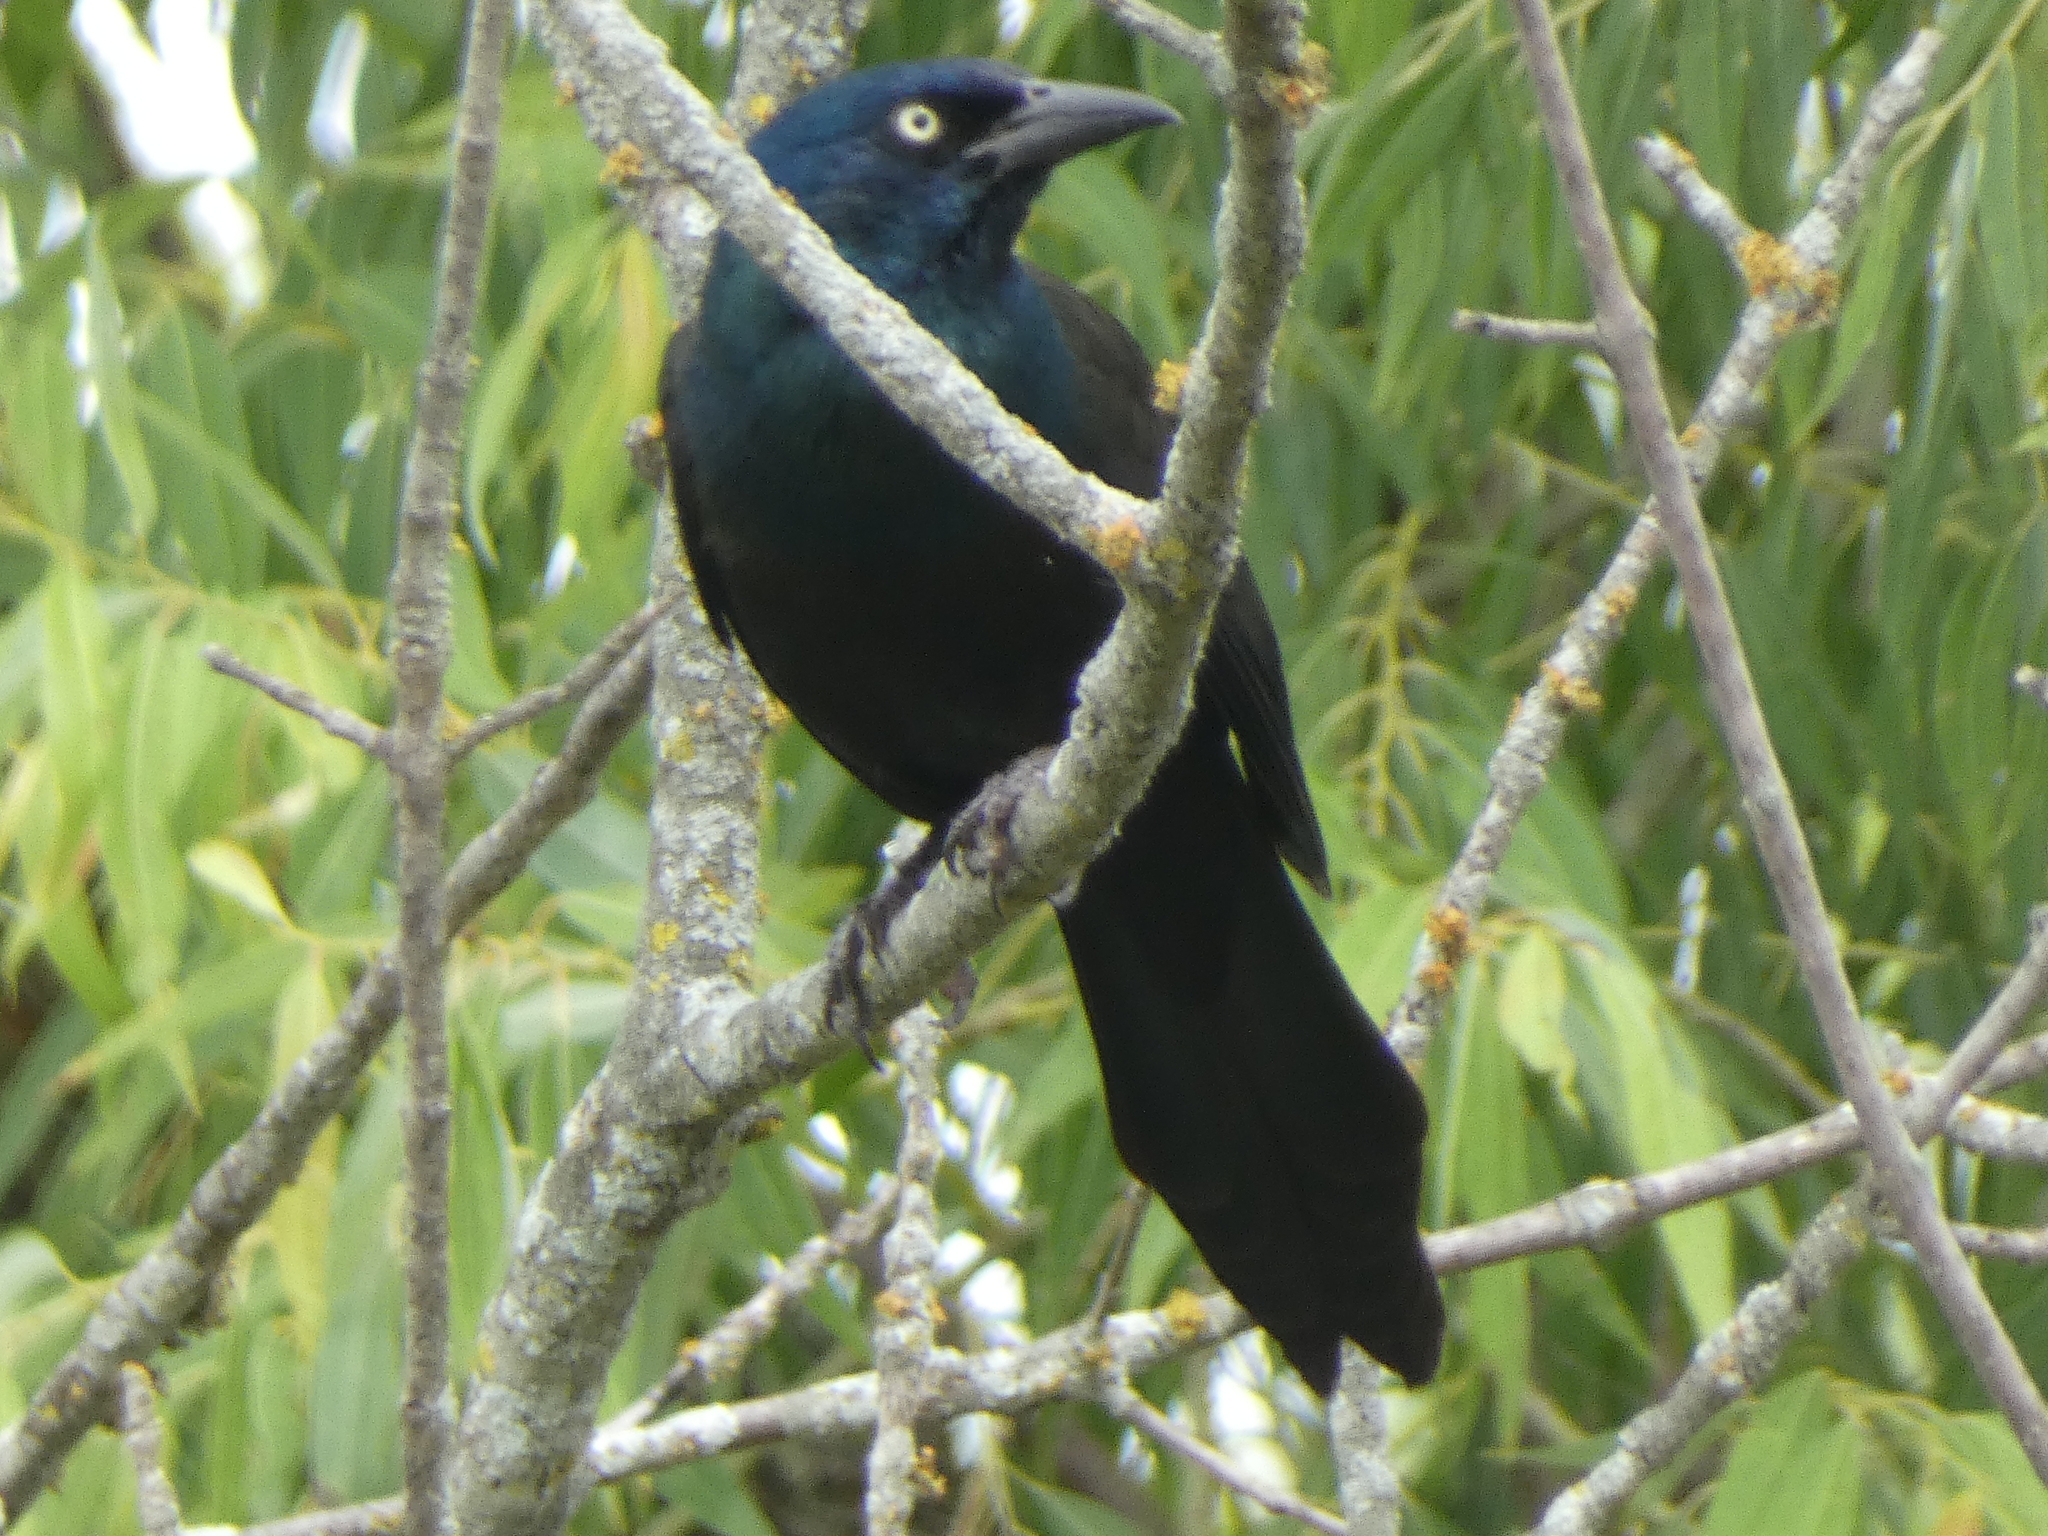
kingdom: Animalia
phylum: Chordata
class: Aves
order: Passeriformes
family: Icteridae
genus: Quiscalus
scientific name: Quiscalus quiscula
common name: Common grackle
